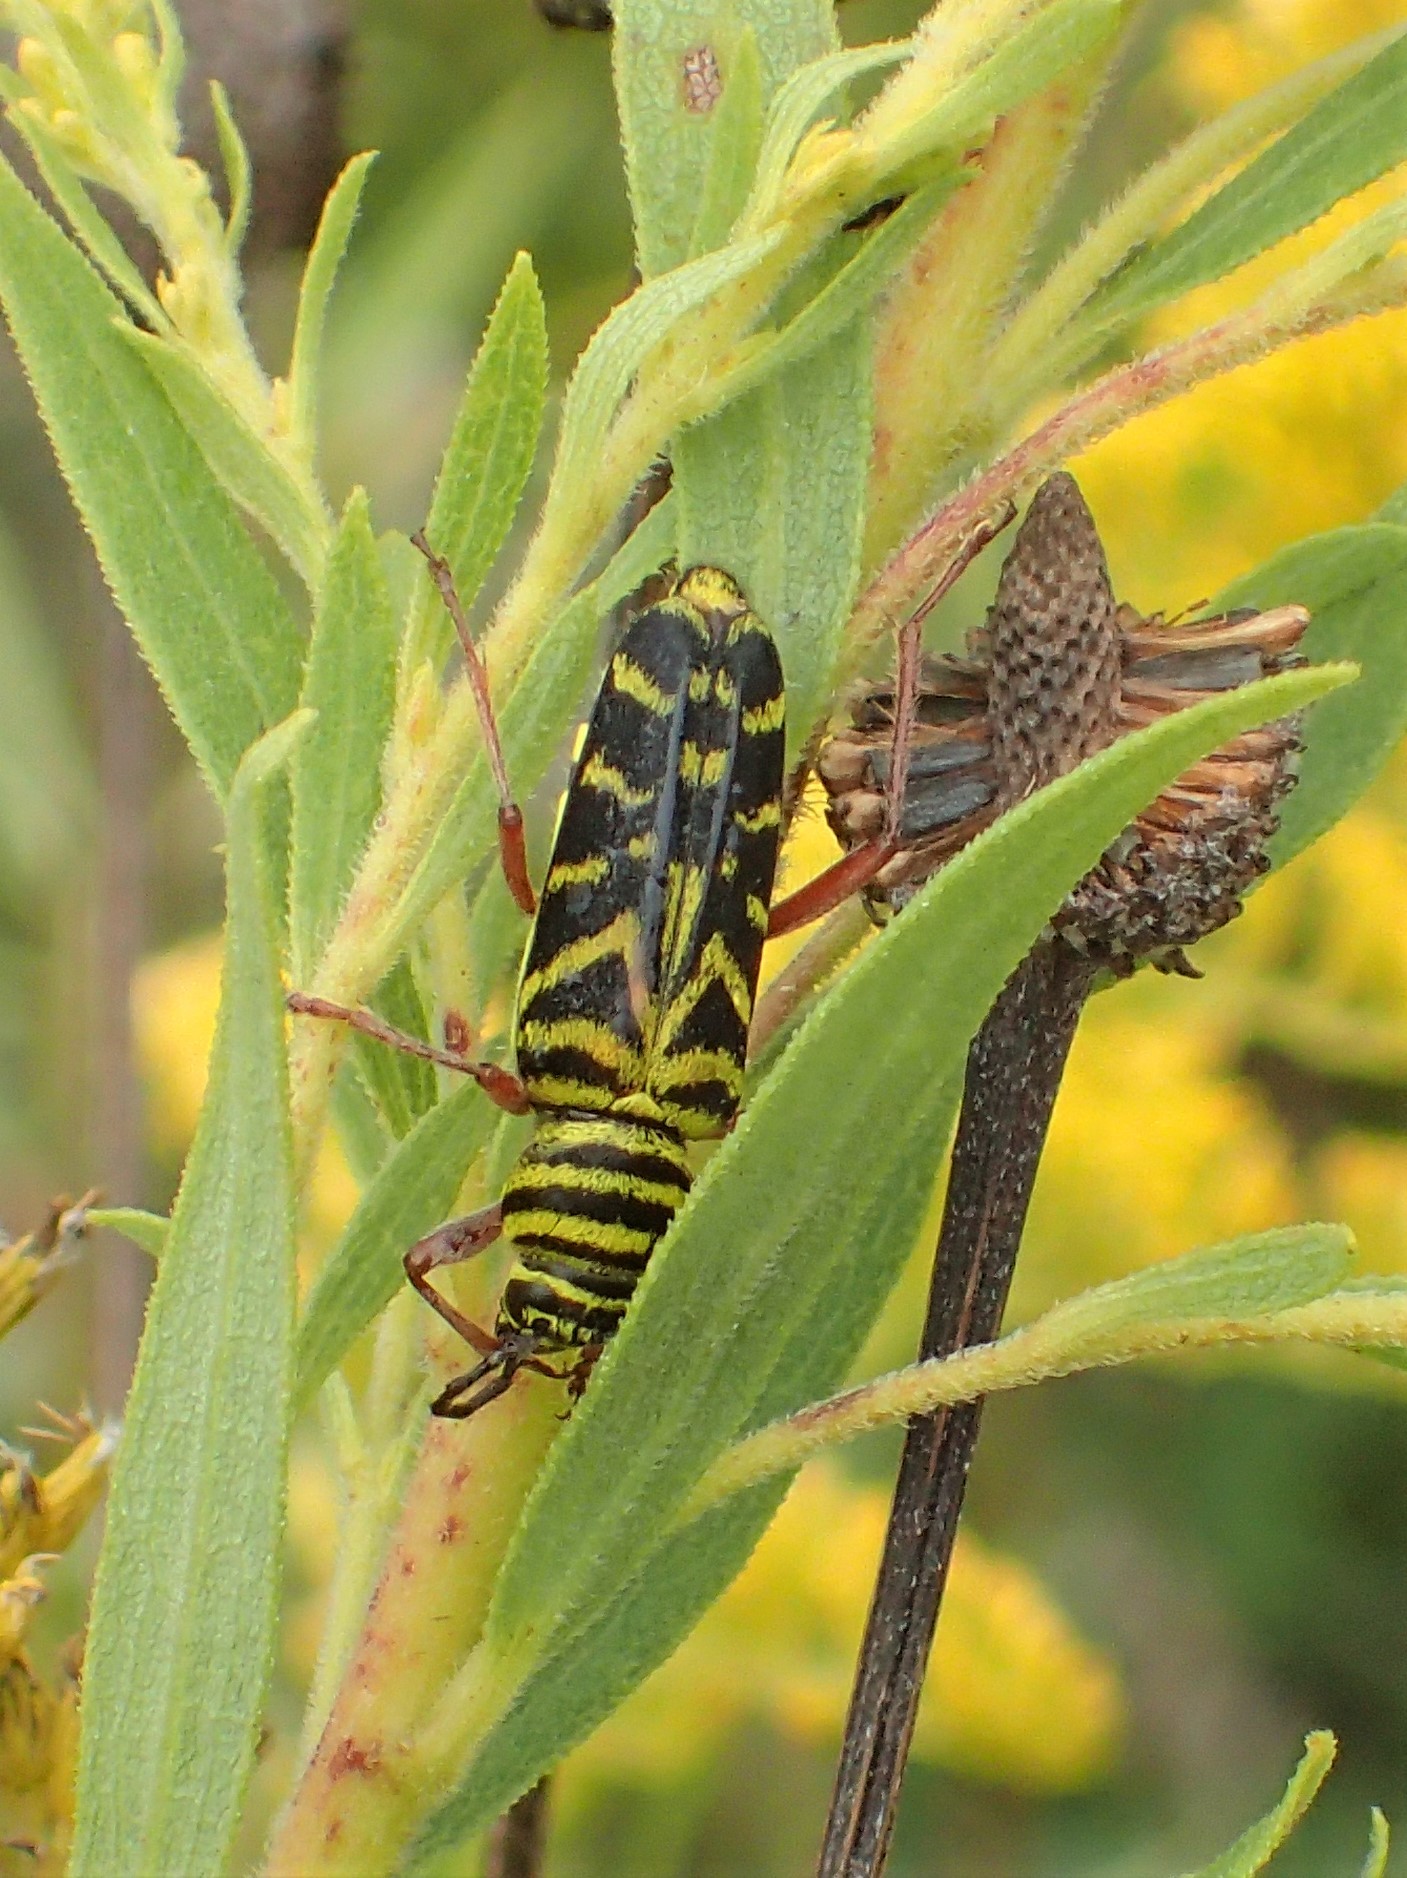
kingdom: Animalia
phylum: Arthropoda
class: Insecta
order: Coleoptera
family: Cerambycidae
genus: Megacyllene
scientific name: Megacyllene robiniae
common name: Locust borer
